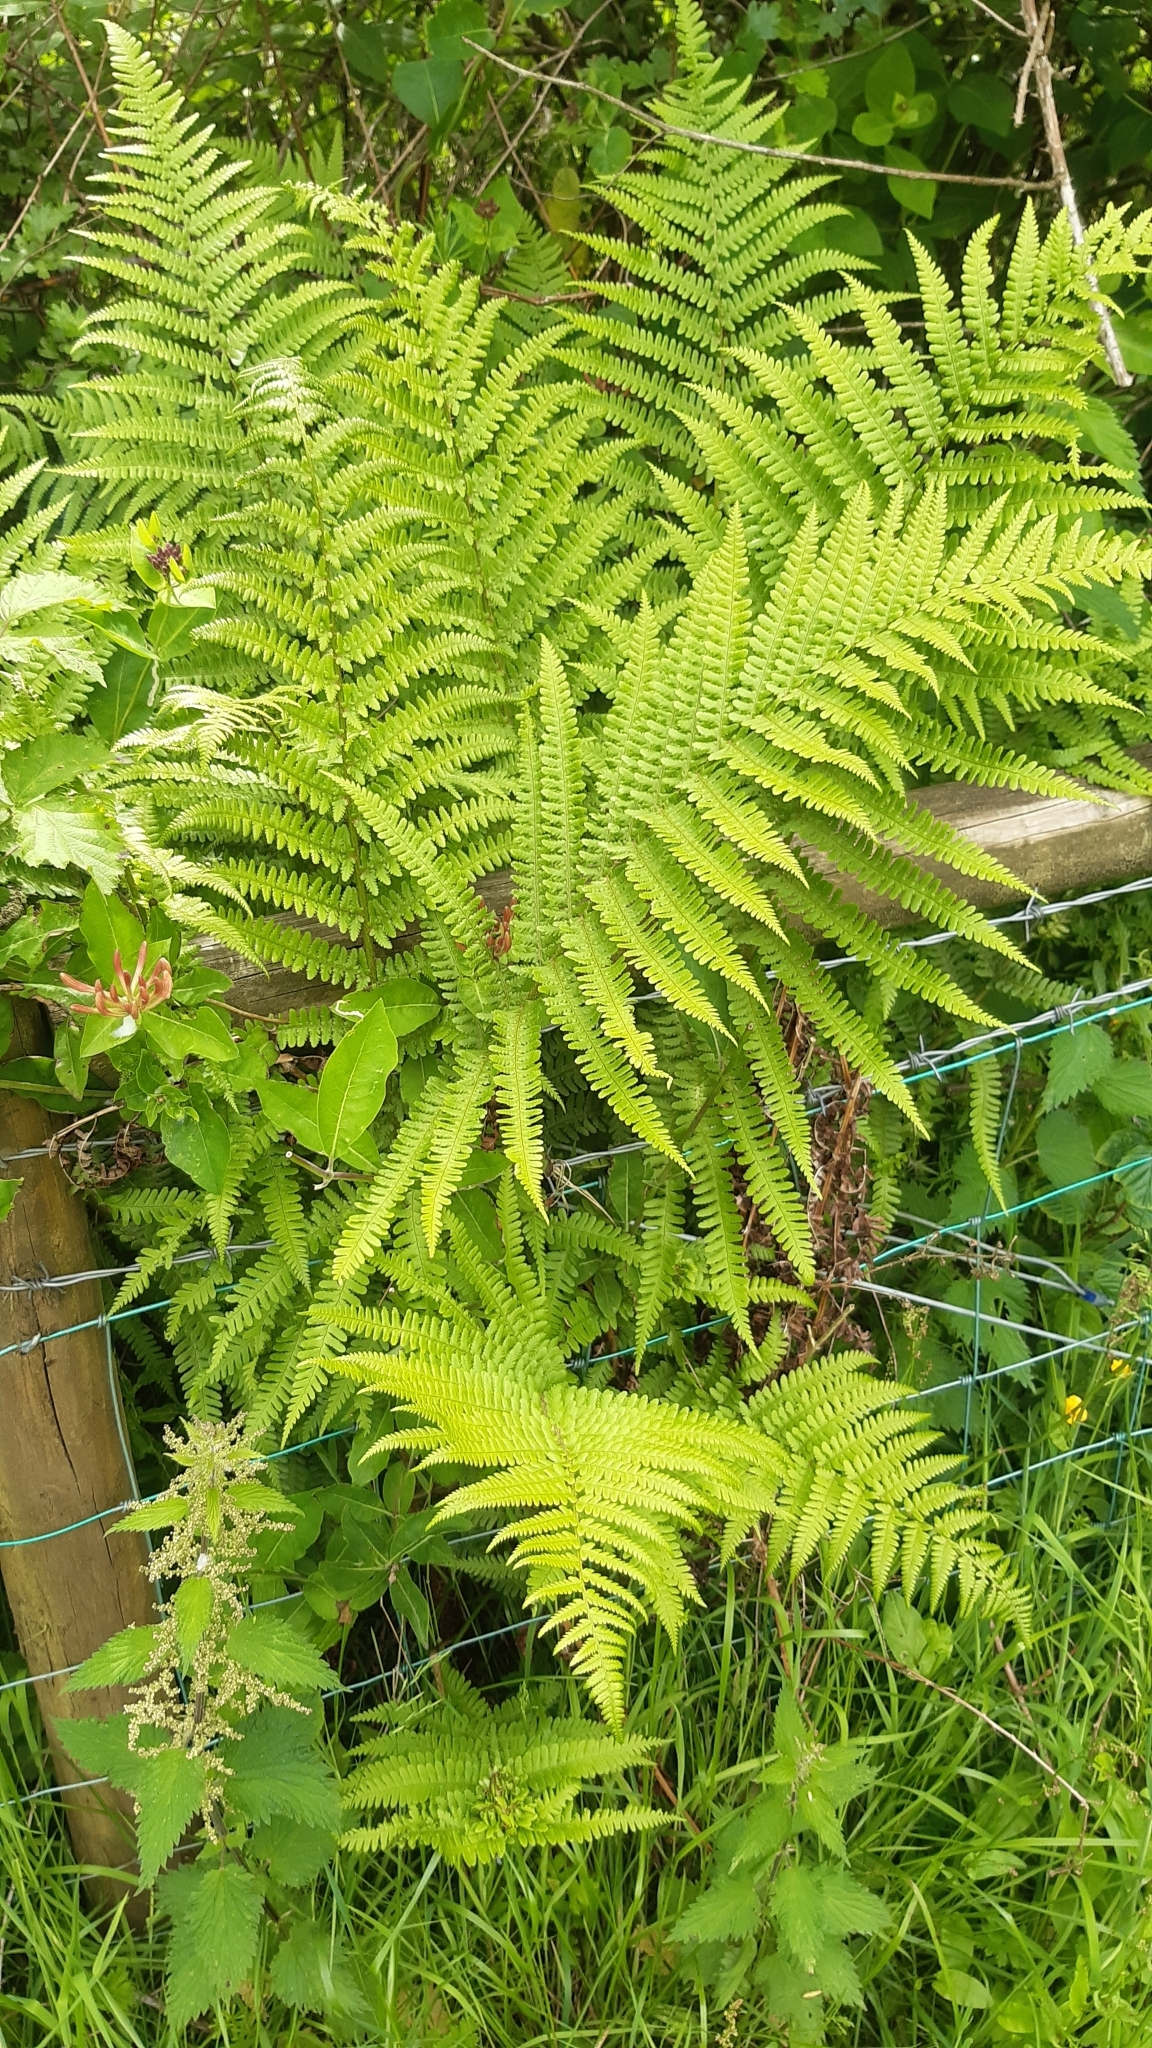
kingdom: Plantae
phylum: Tracheophyta
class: Polypodiopsida
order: Polypodiales
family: Dryopteridaceae
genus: Dryopteris
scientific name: Dryopteris filix-mas
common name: Male fern
